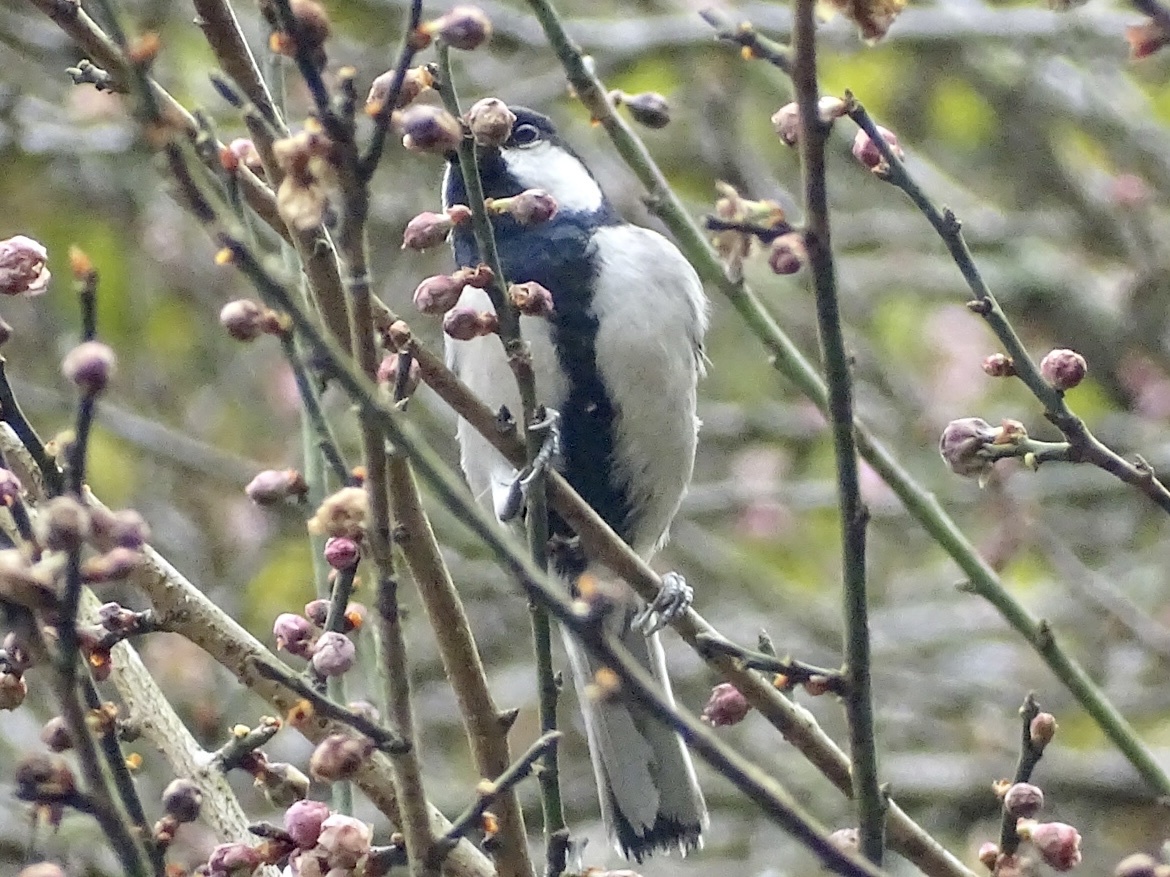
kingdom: Animalia
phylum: Chordata
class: Aves
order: Passeriformes
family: Paridae
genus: Parus
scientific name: Parus minor
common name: Japanese tit
